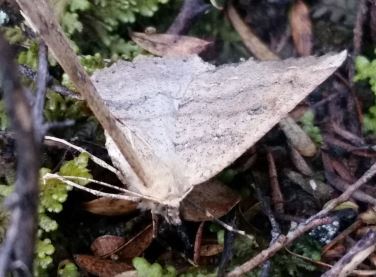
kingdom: Animalia
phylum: Arthropoda
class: Insecta
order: Lepidoptera
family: Geometridae
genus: Cleora
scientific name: Cleora scriptaria
